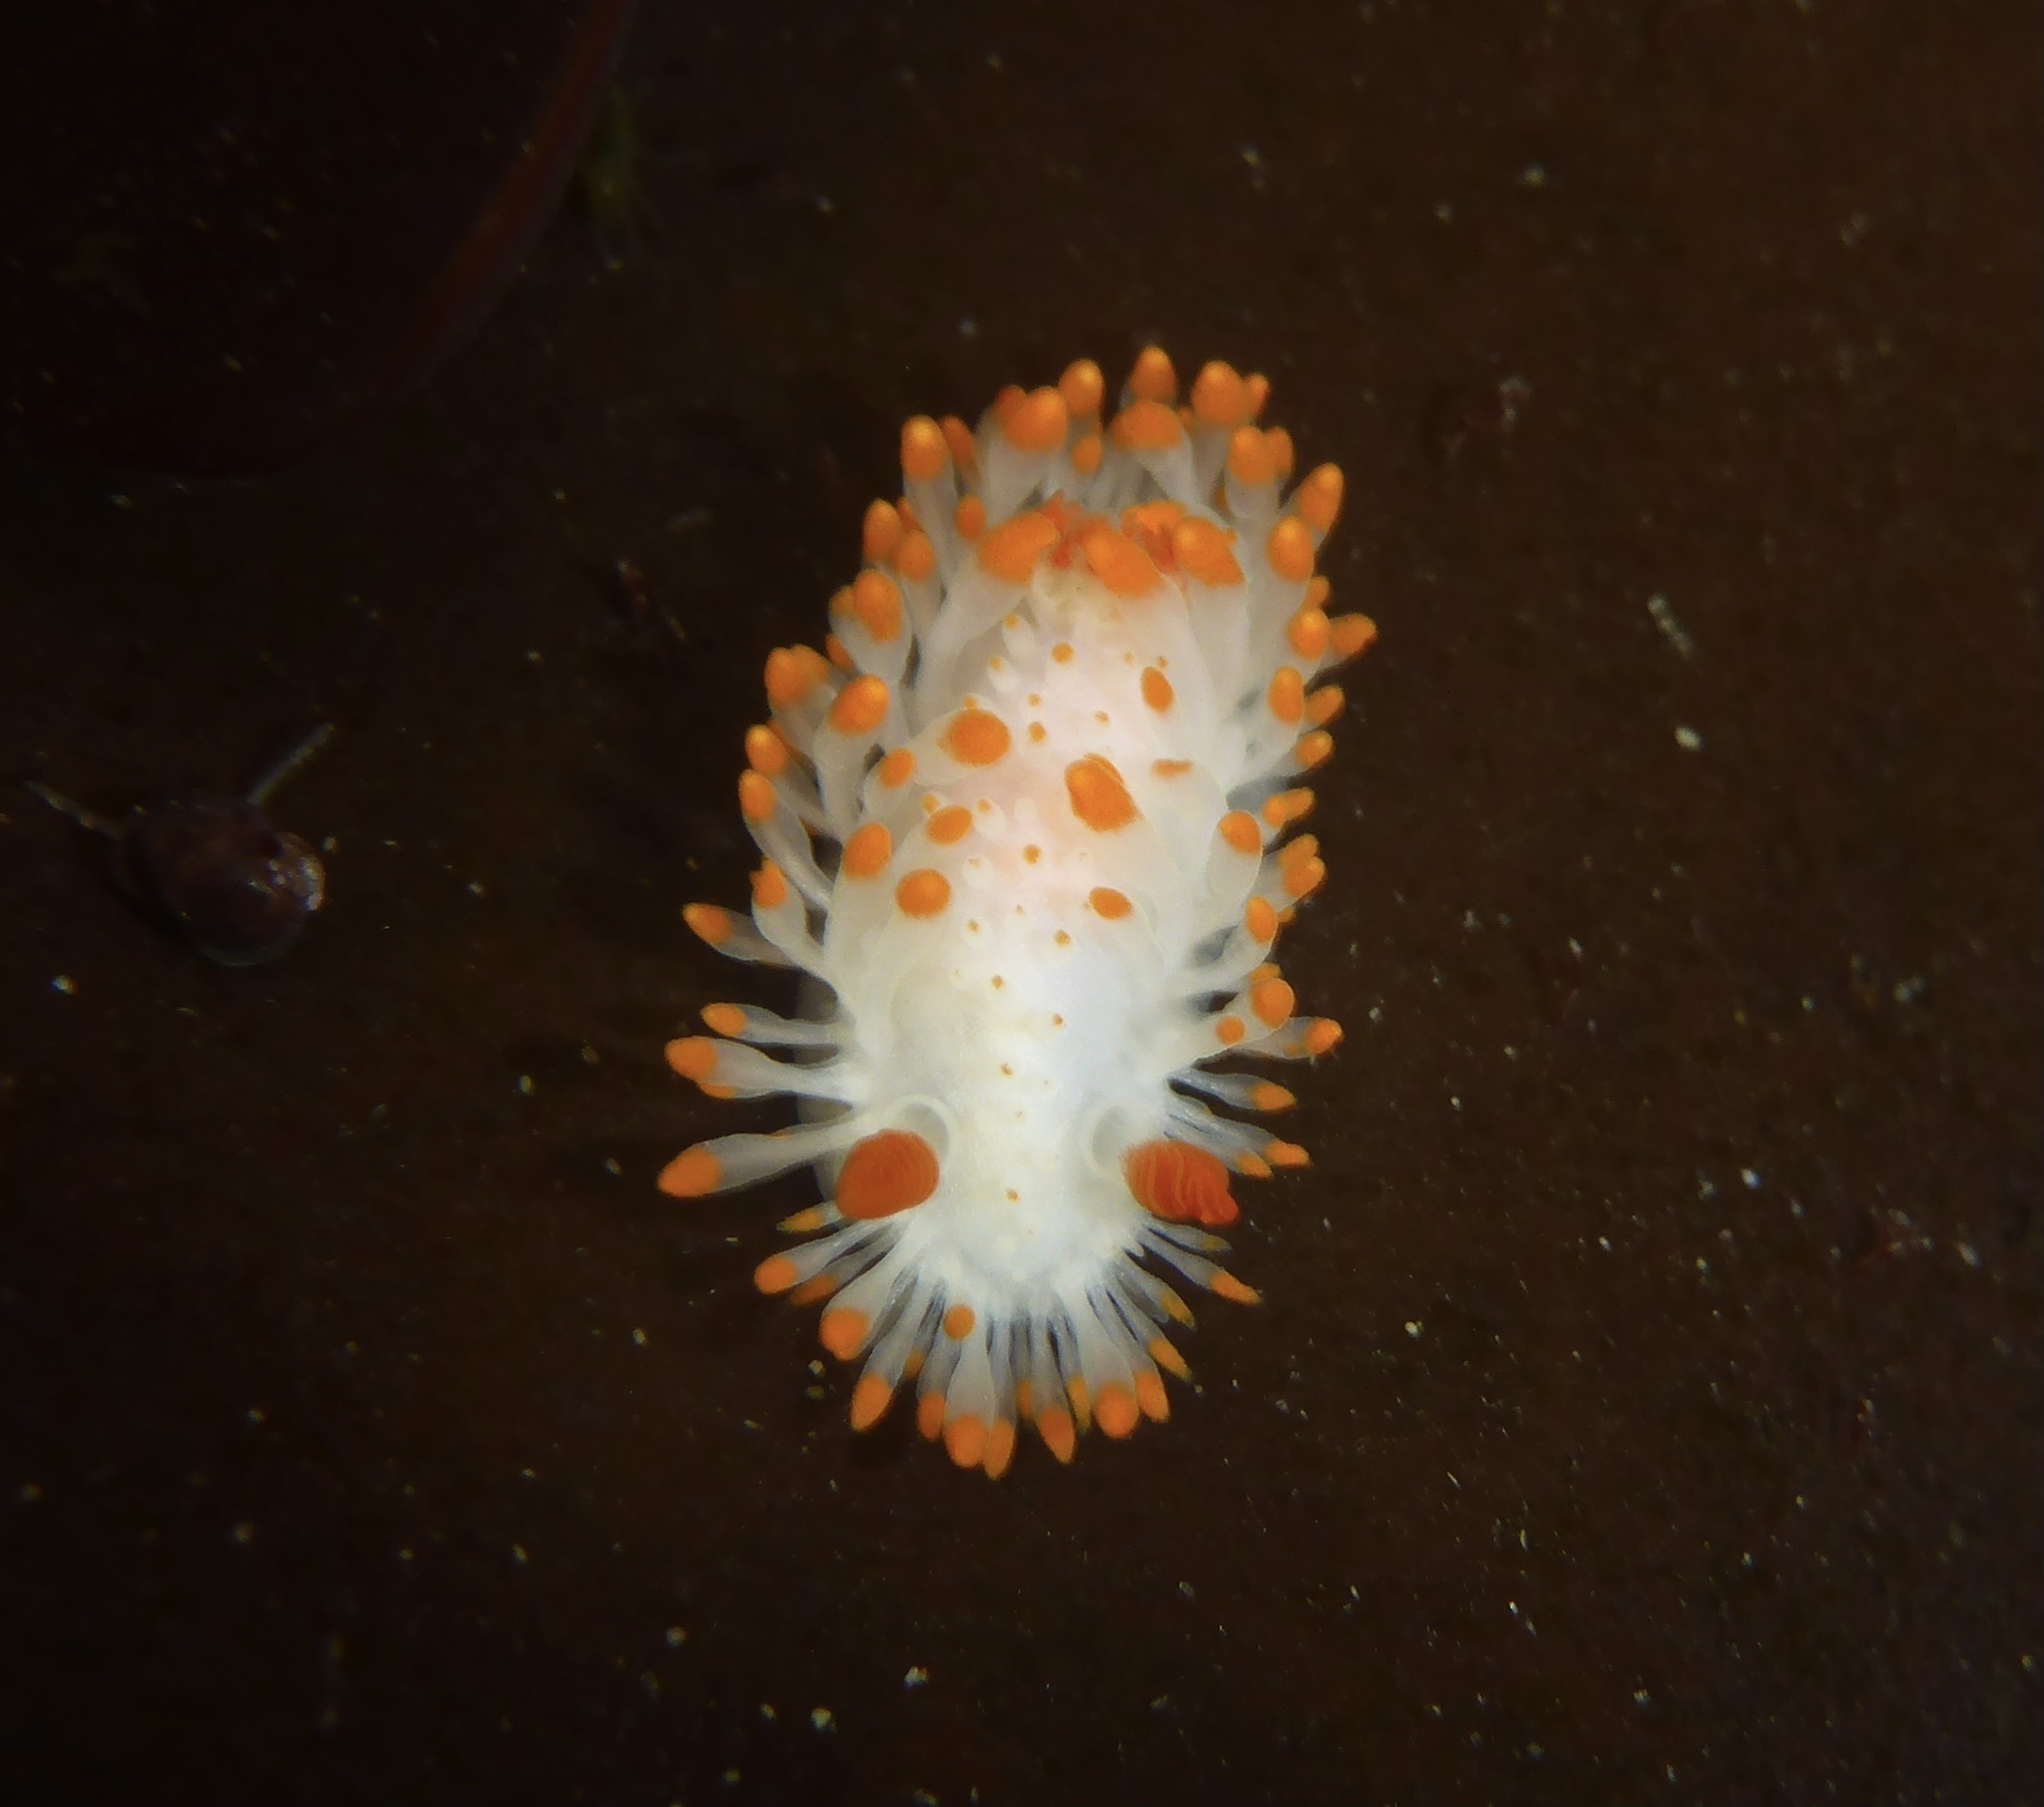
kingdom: Animalia
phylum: Mollusca
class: Gastropoda
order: Nudibranchia
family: Polyceridae
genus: Limacia
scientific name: Limacia cockerelli
